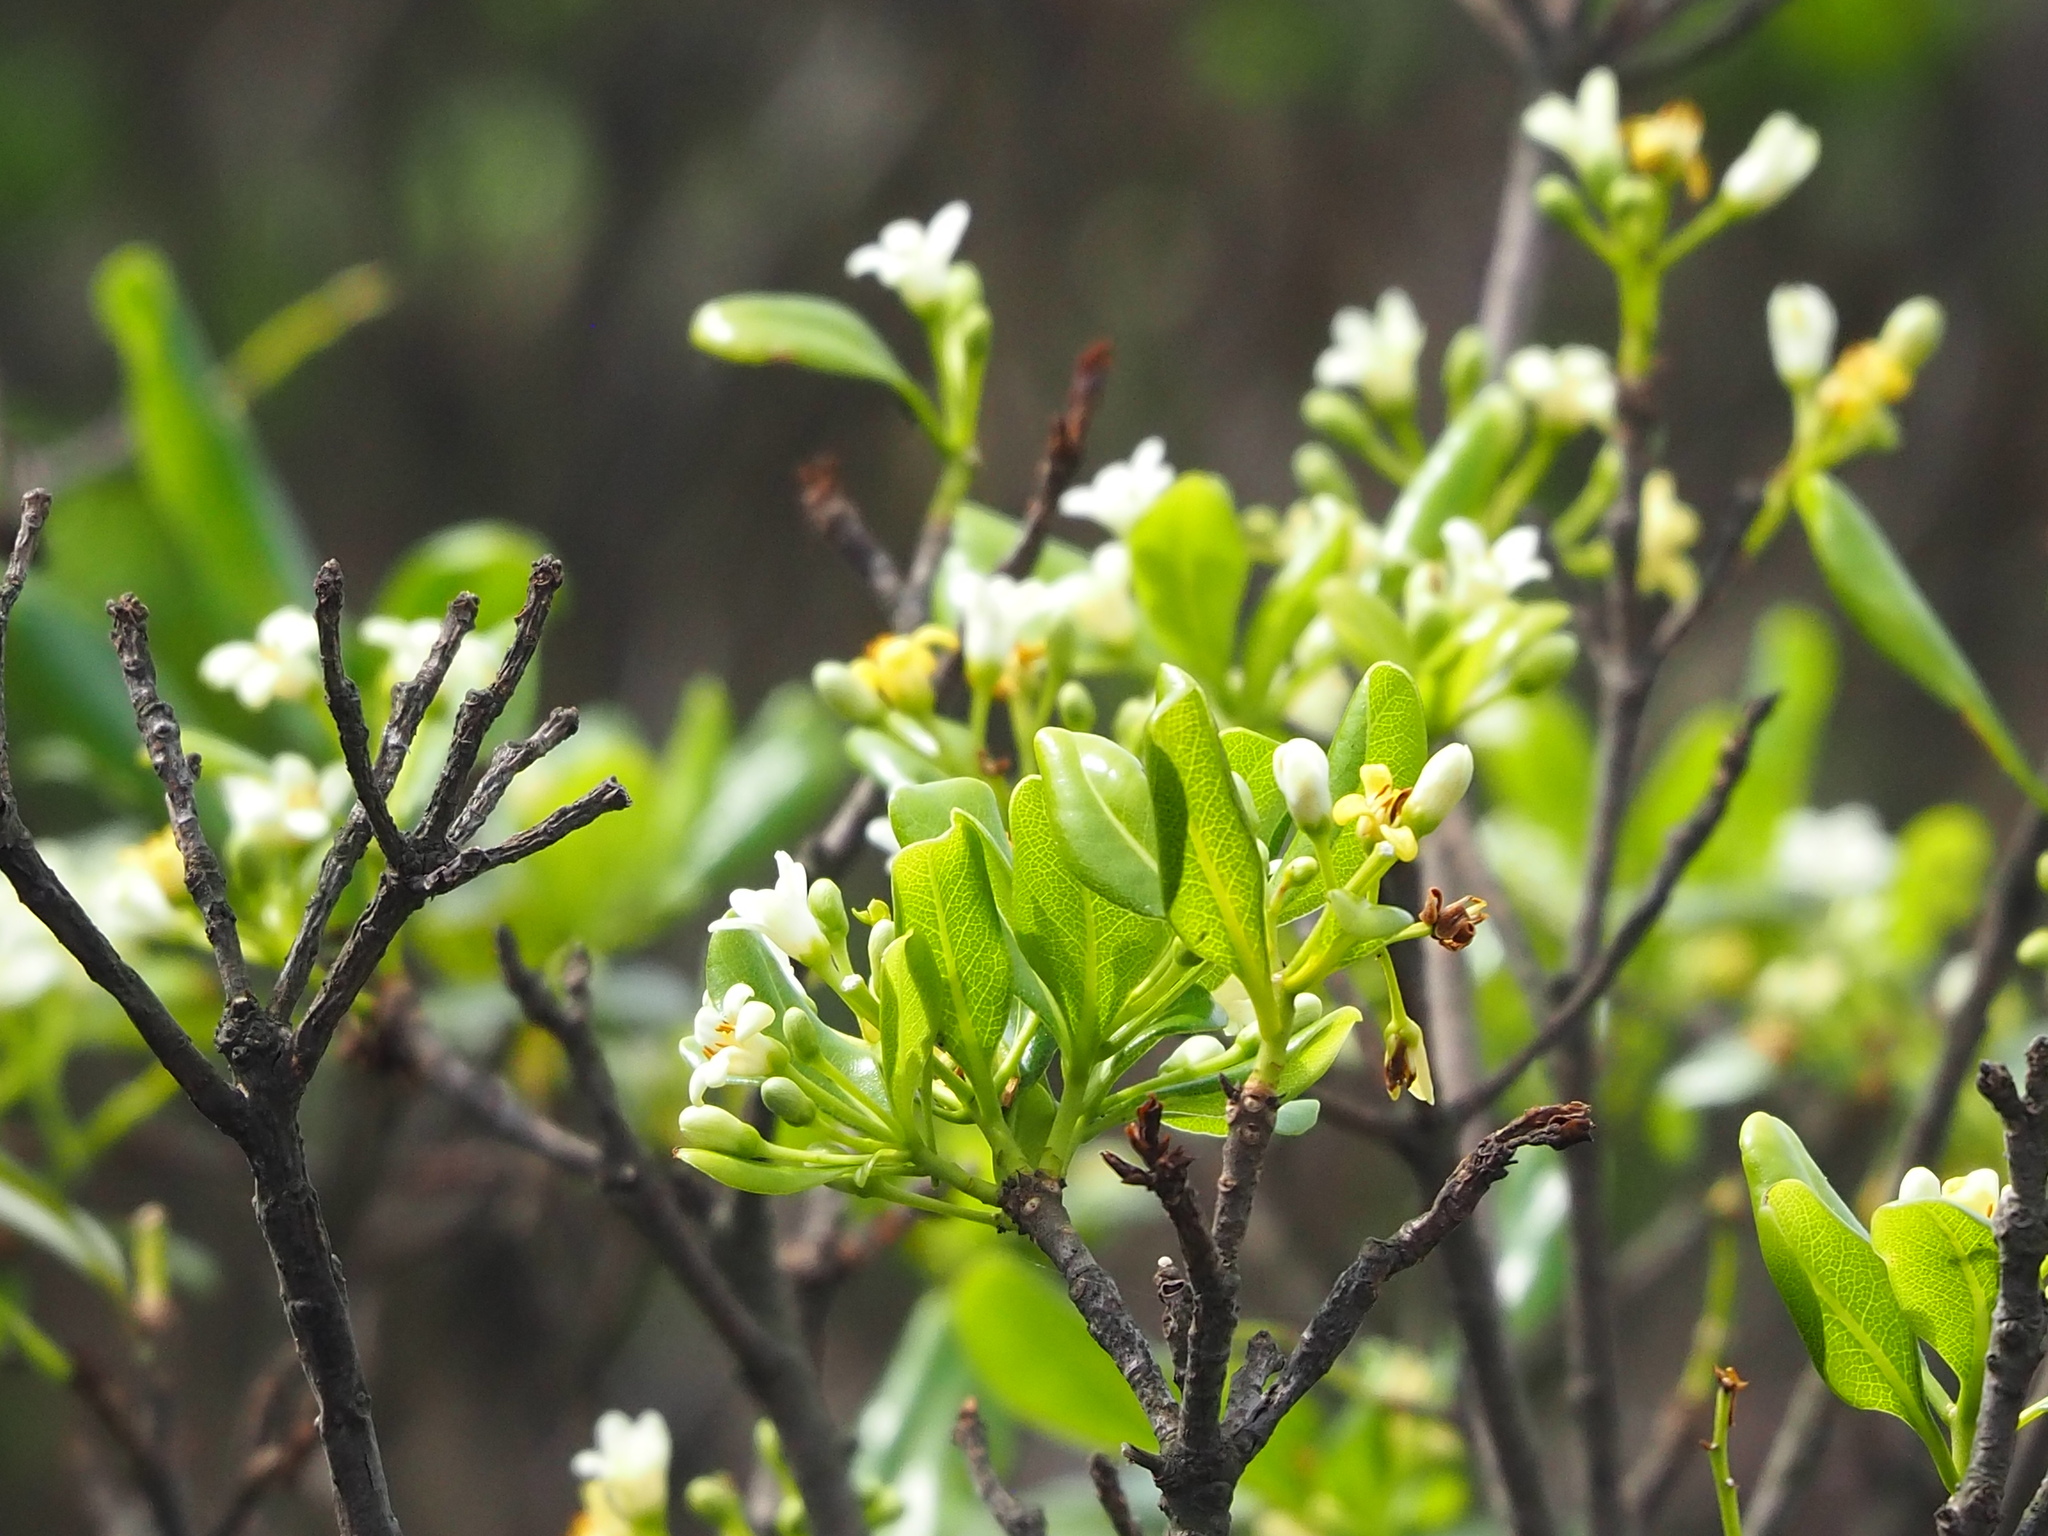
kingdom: Plantae
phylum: Tracheophyta
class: Magnoliopsida
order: Apiales
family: Pittosporaceae
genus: Pittosporum
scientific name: Pittosporum tobira
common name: Japanese cheesewood
